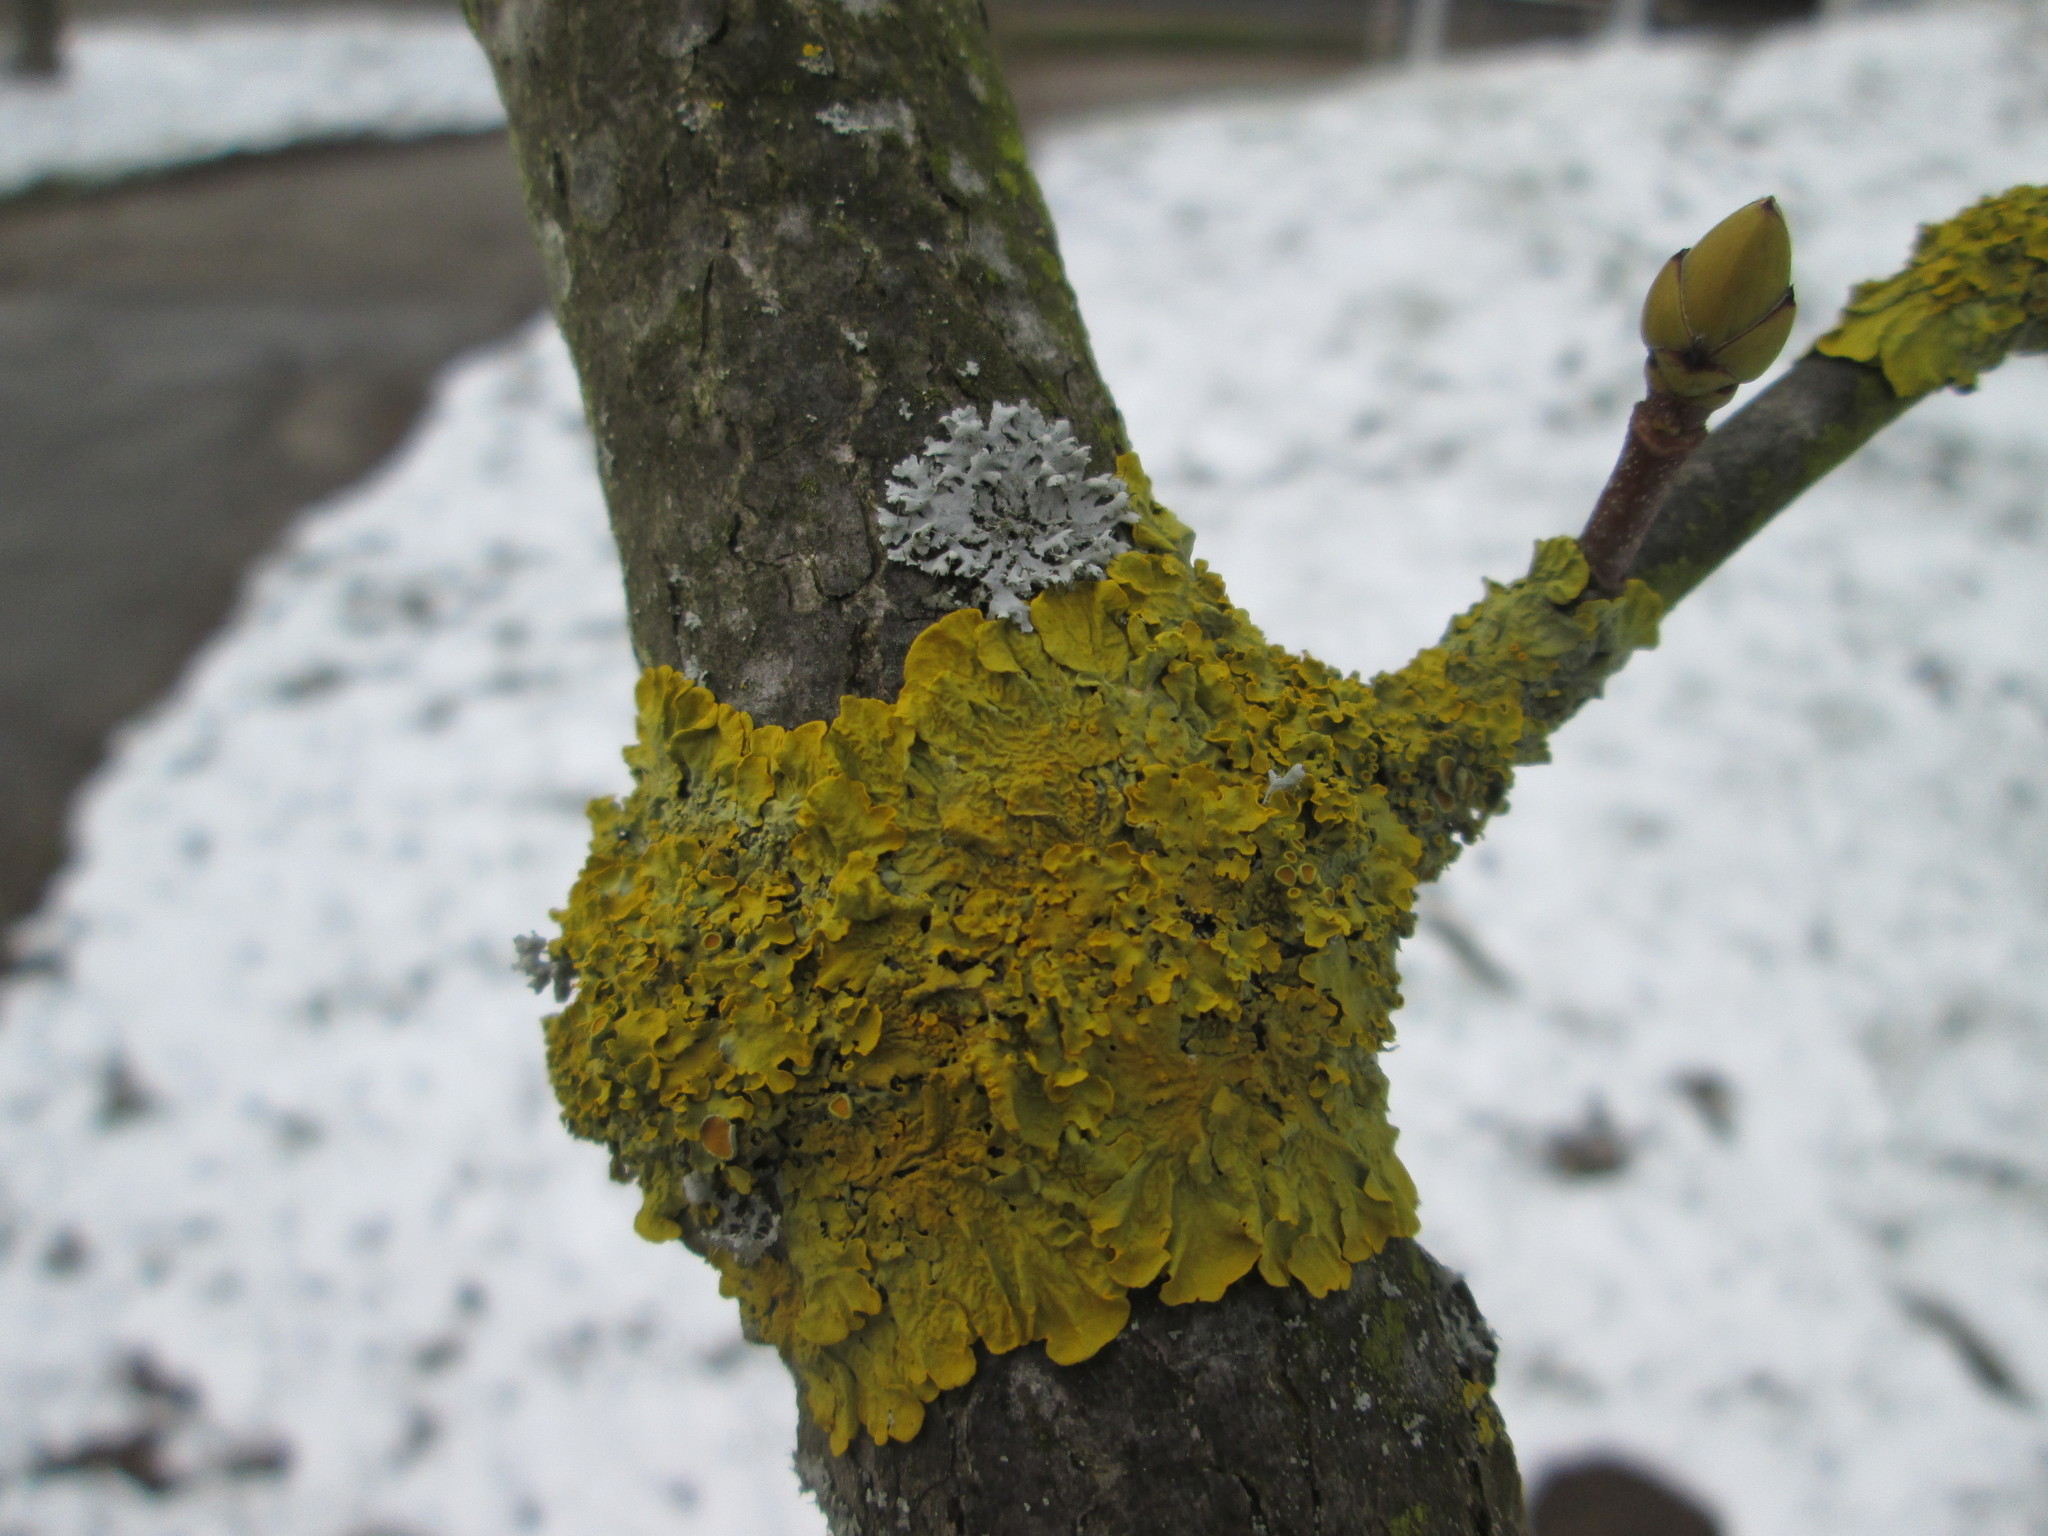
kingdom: Plantae
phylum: Tracheophyta
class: Magnoliopsida
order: Sapindales
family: Sapindaceae
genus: Acer
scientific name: Acer pseudoplatanus
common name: Sycamore
